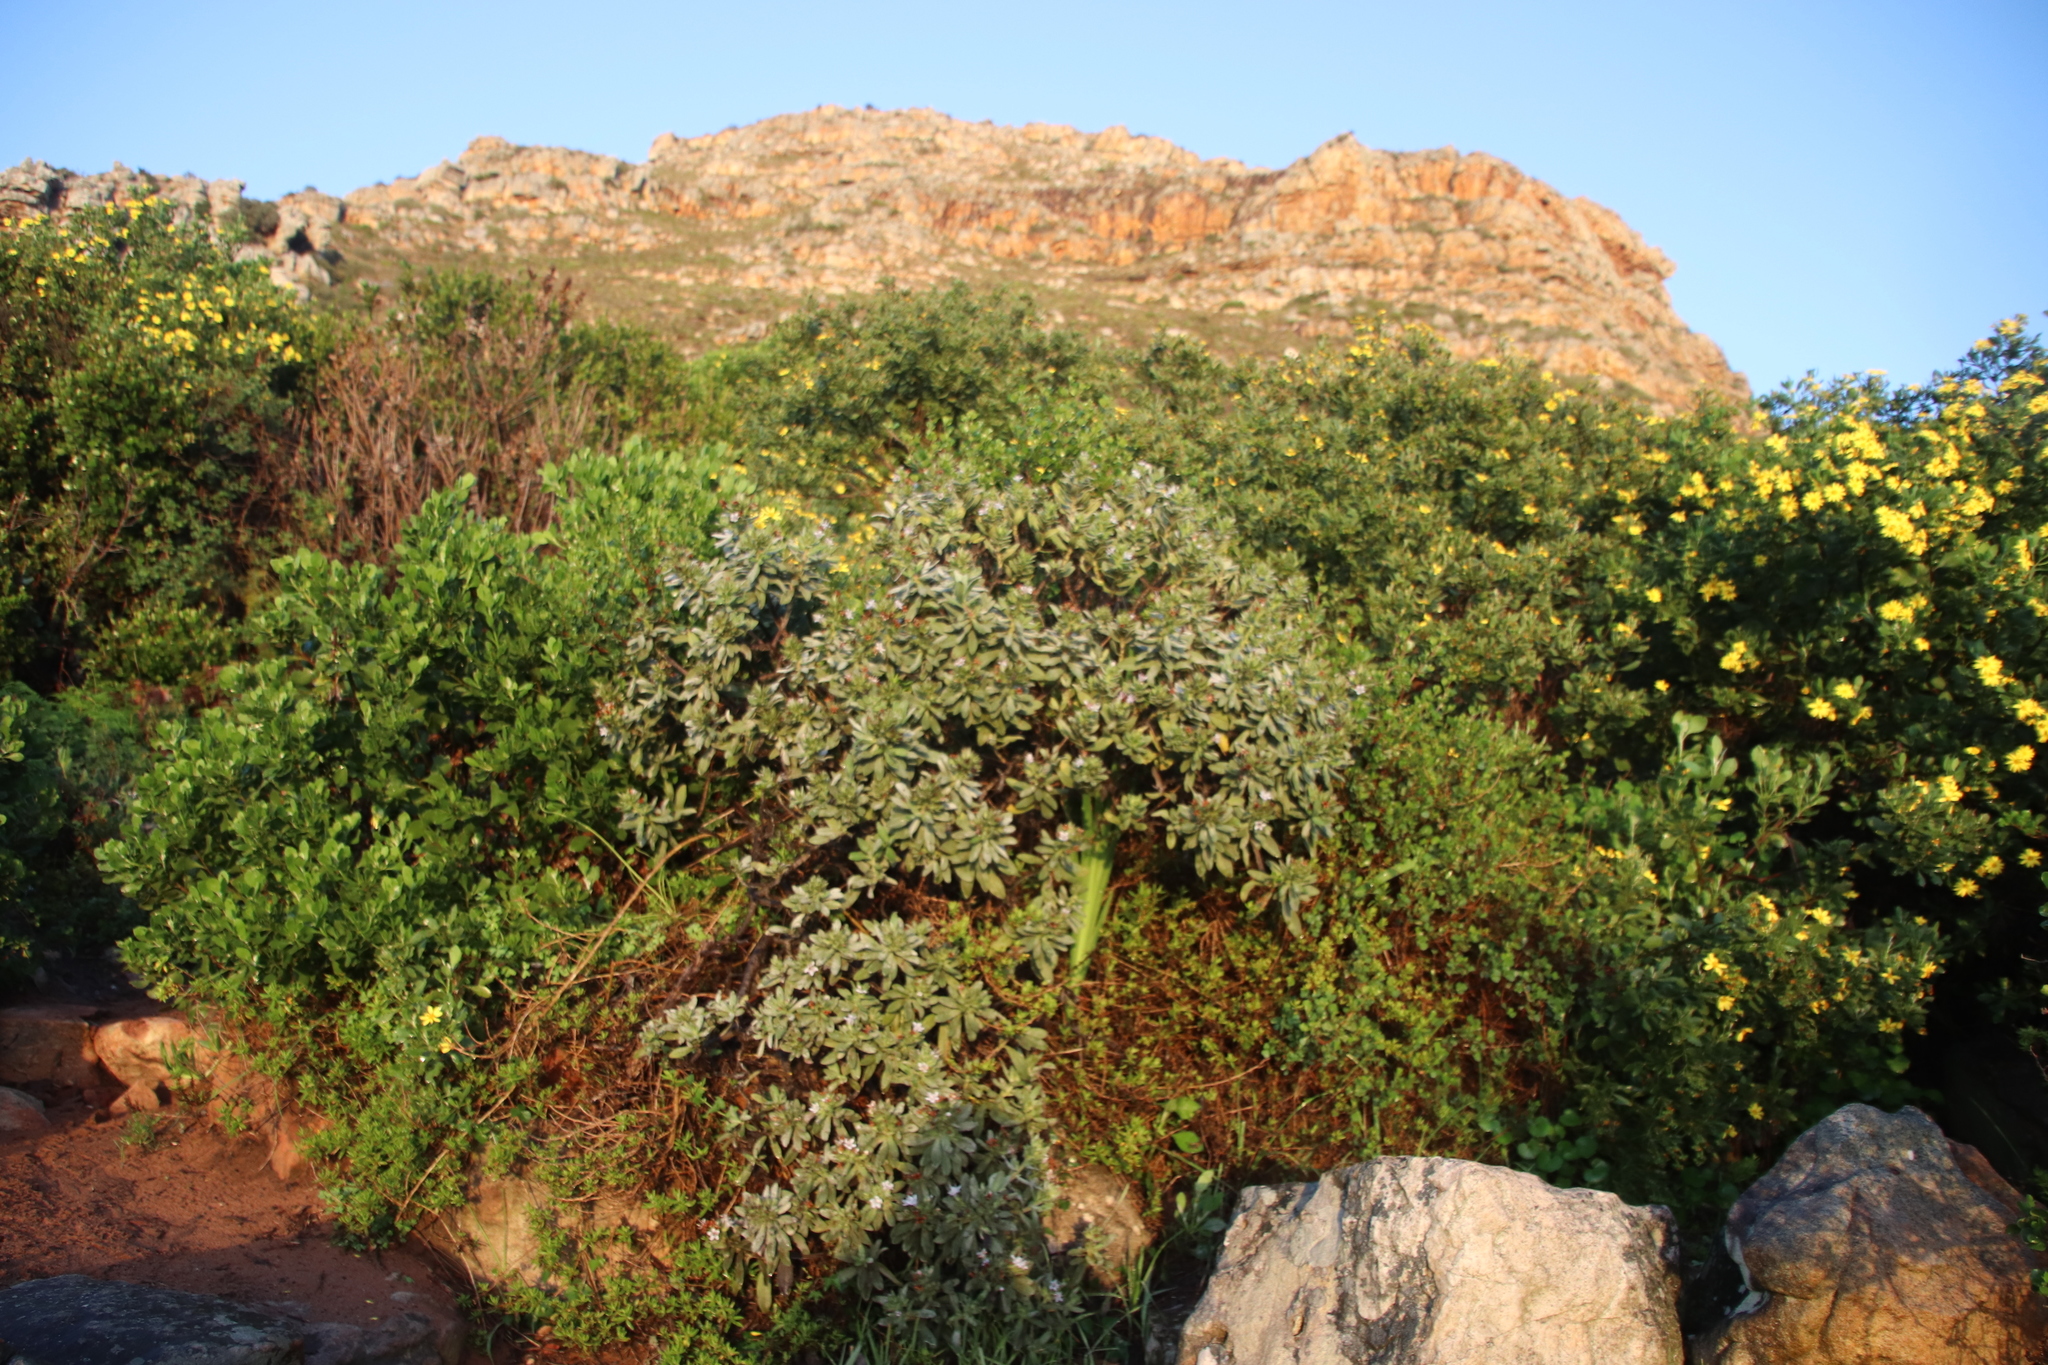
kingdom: Plantae
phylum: Tracheophyta
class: Magnoliopsida
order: Boraginales
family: Boraginaceae
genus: Lobostemon
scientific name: Lobostemon montanus
